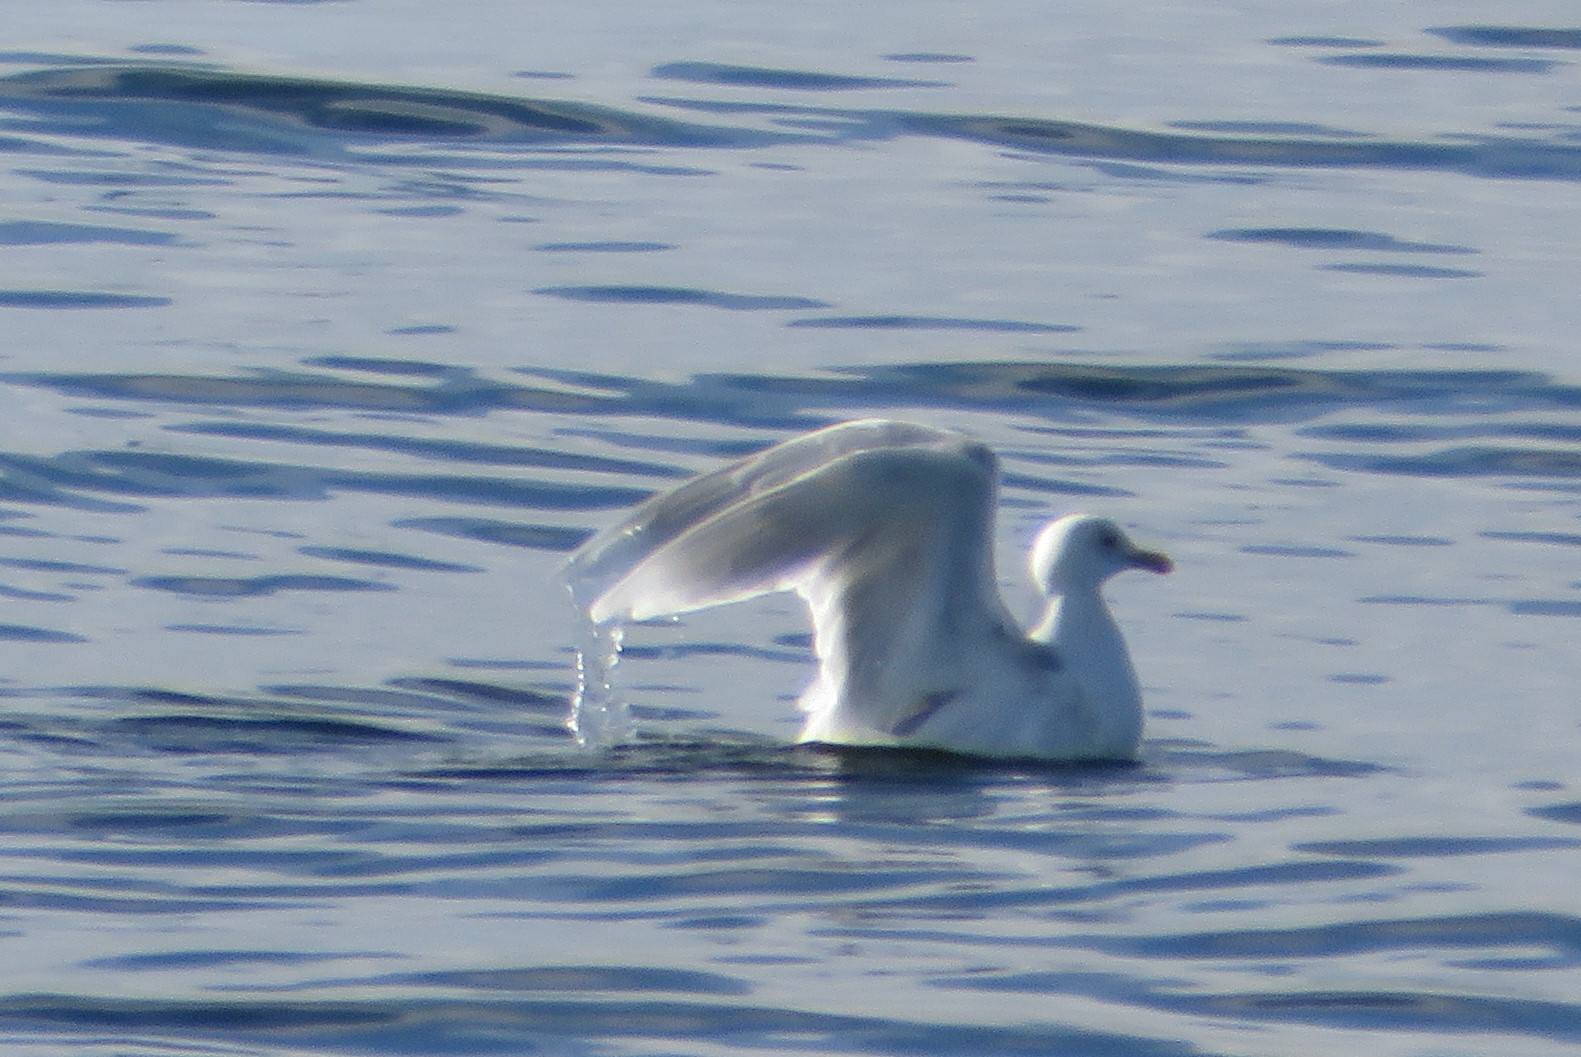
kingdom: Animalia
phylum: Chordata
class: Aves
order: Charadriiformes
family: Laridae
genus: Larus
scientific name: Larus glaucoides
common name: Iceland gull
